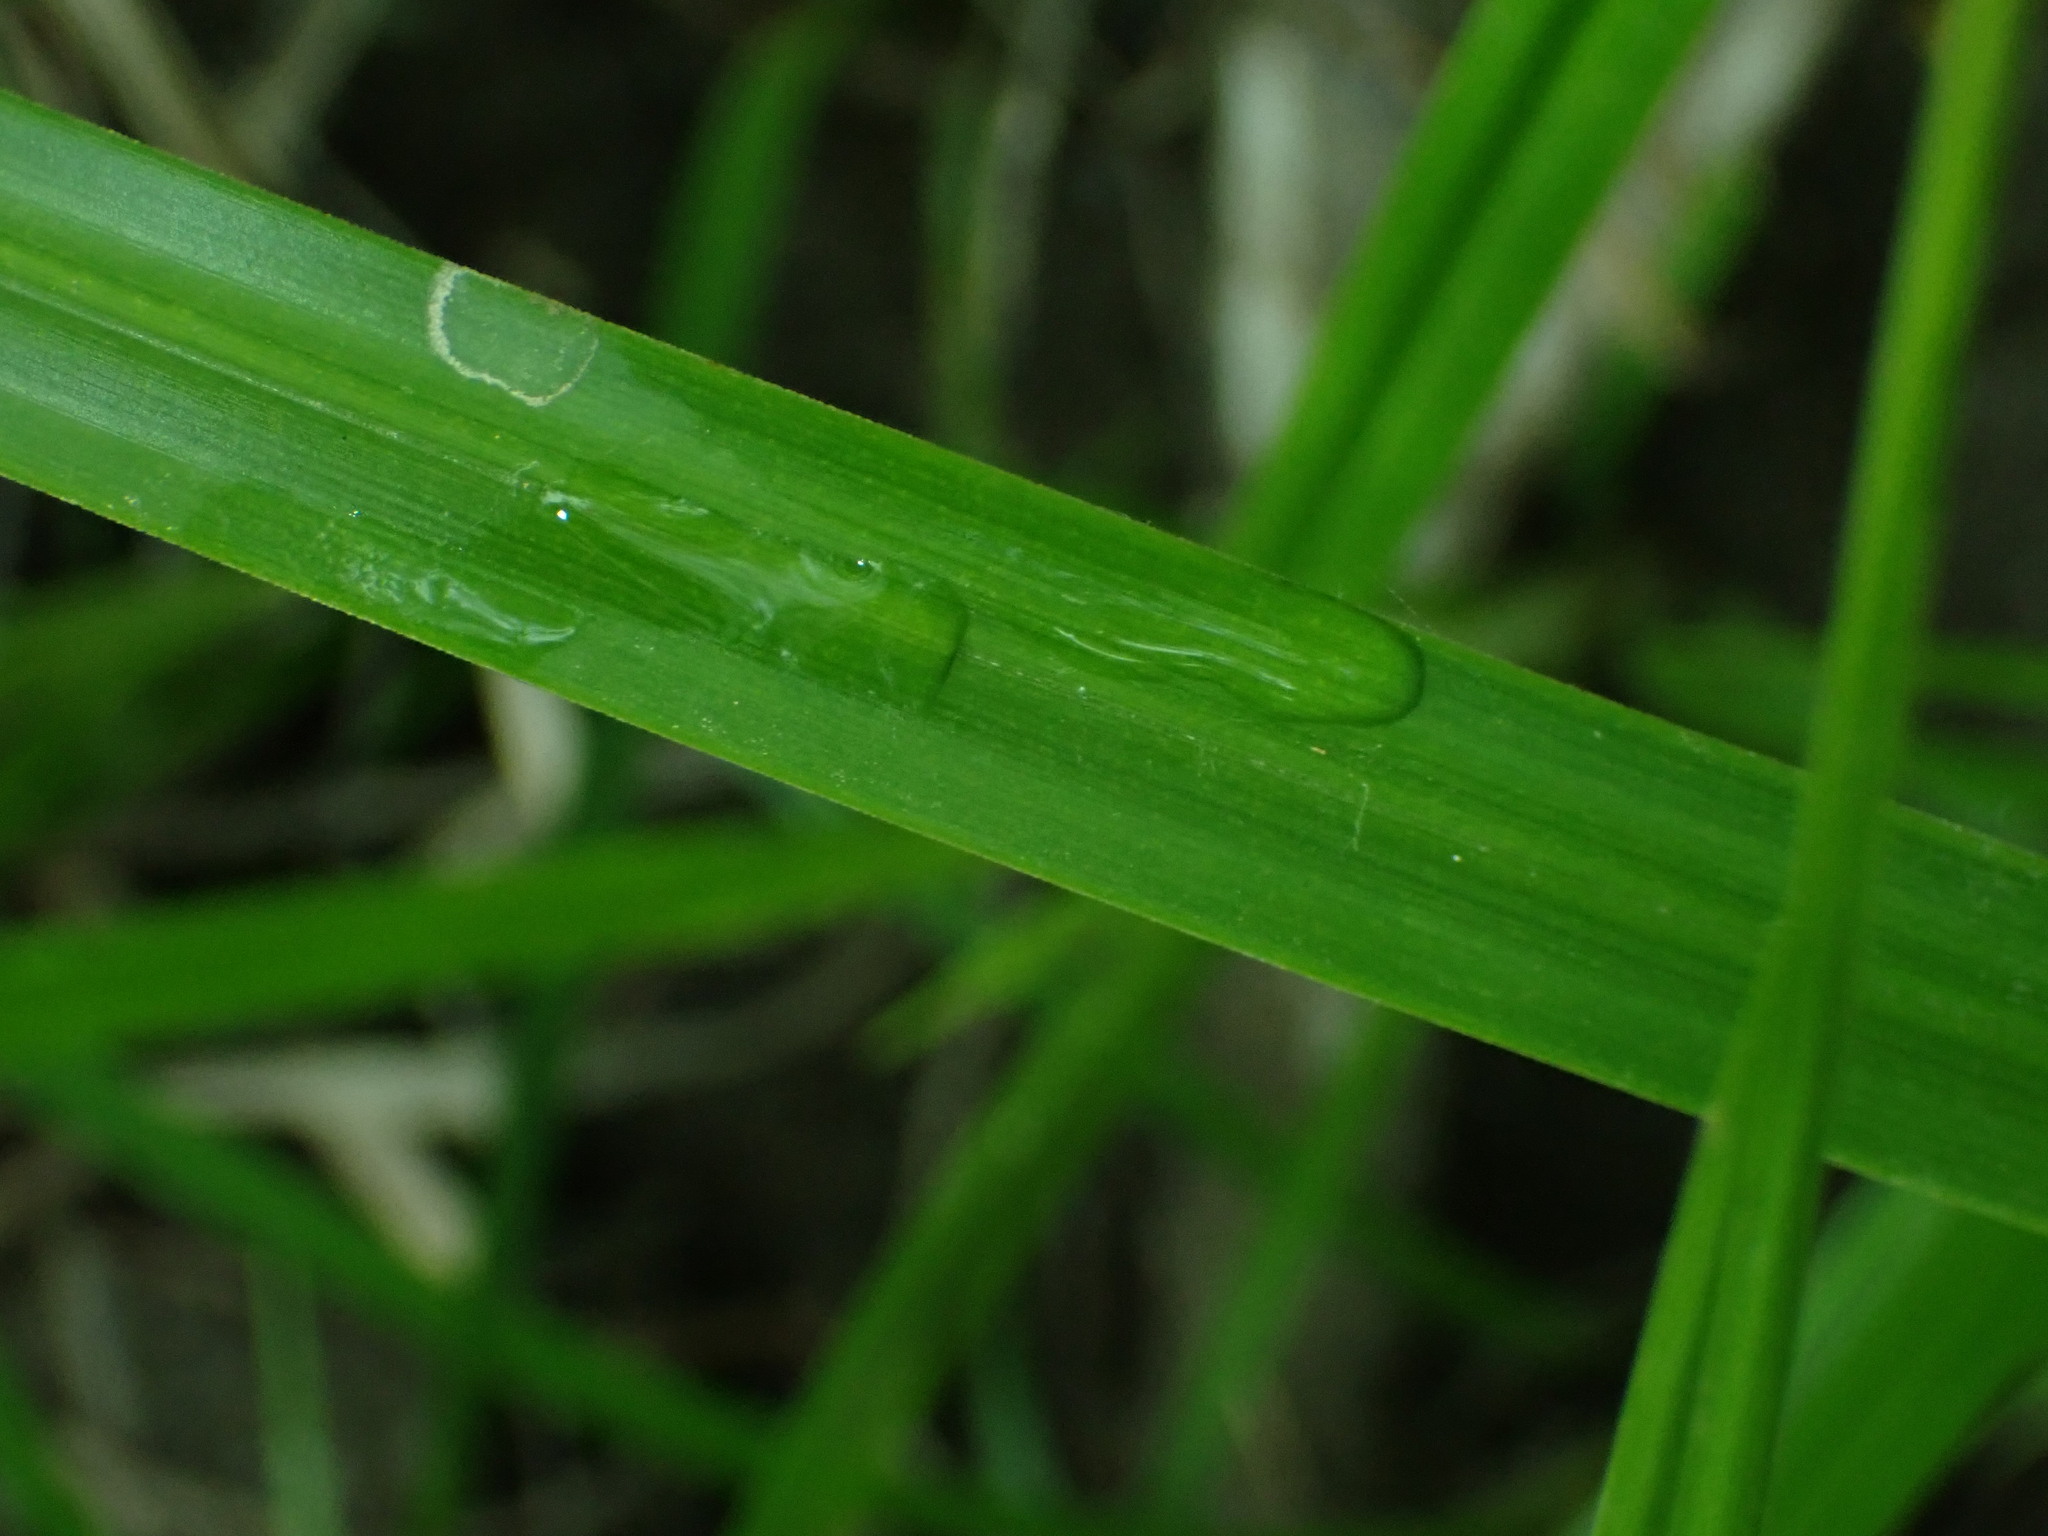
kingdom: Plantae
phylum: Tracheophyta
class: Liliopsida
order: Poales
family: Cyperaceae
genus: Scirpus
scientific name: Scirpus microcarpus
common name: Panicled bulrush
